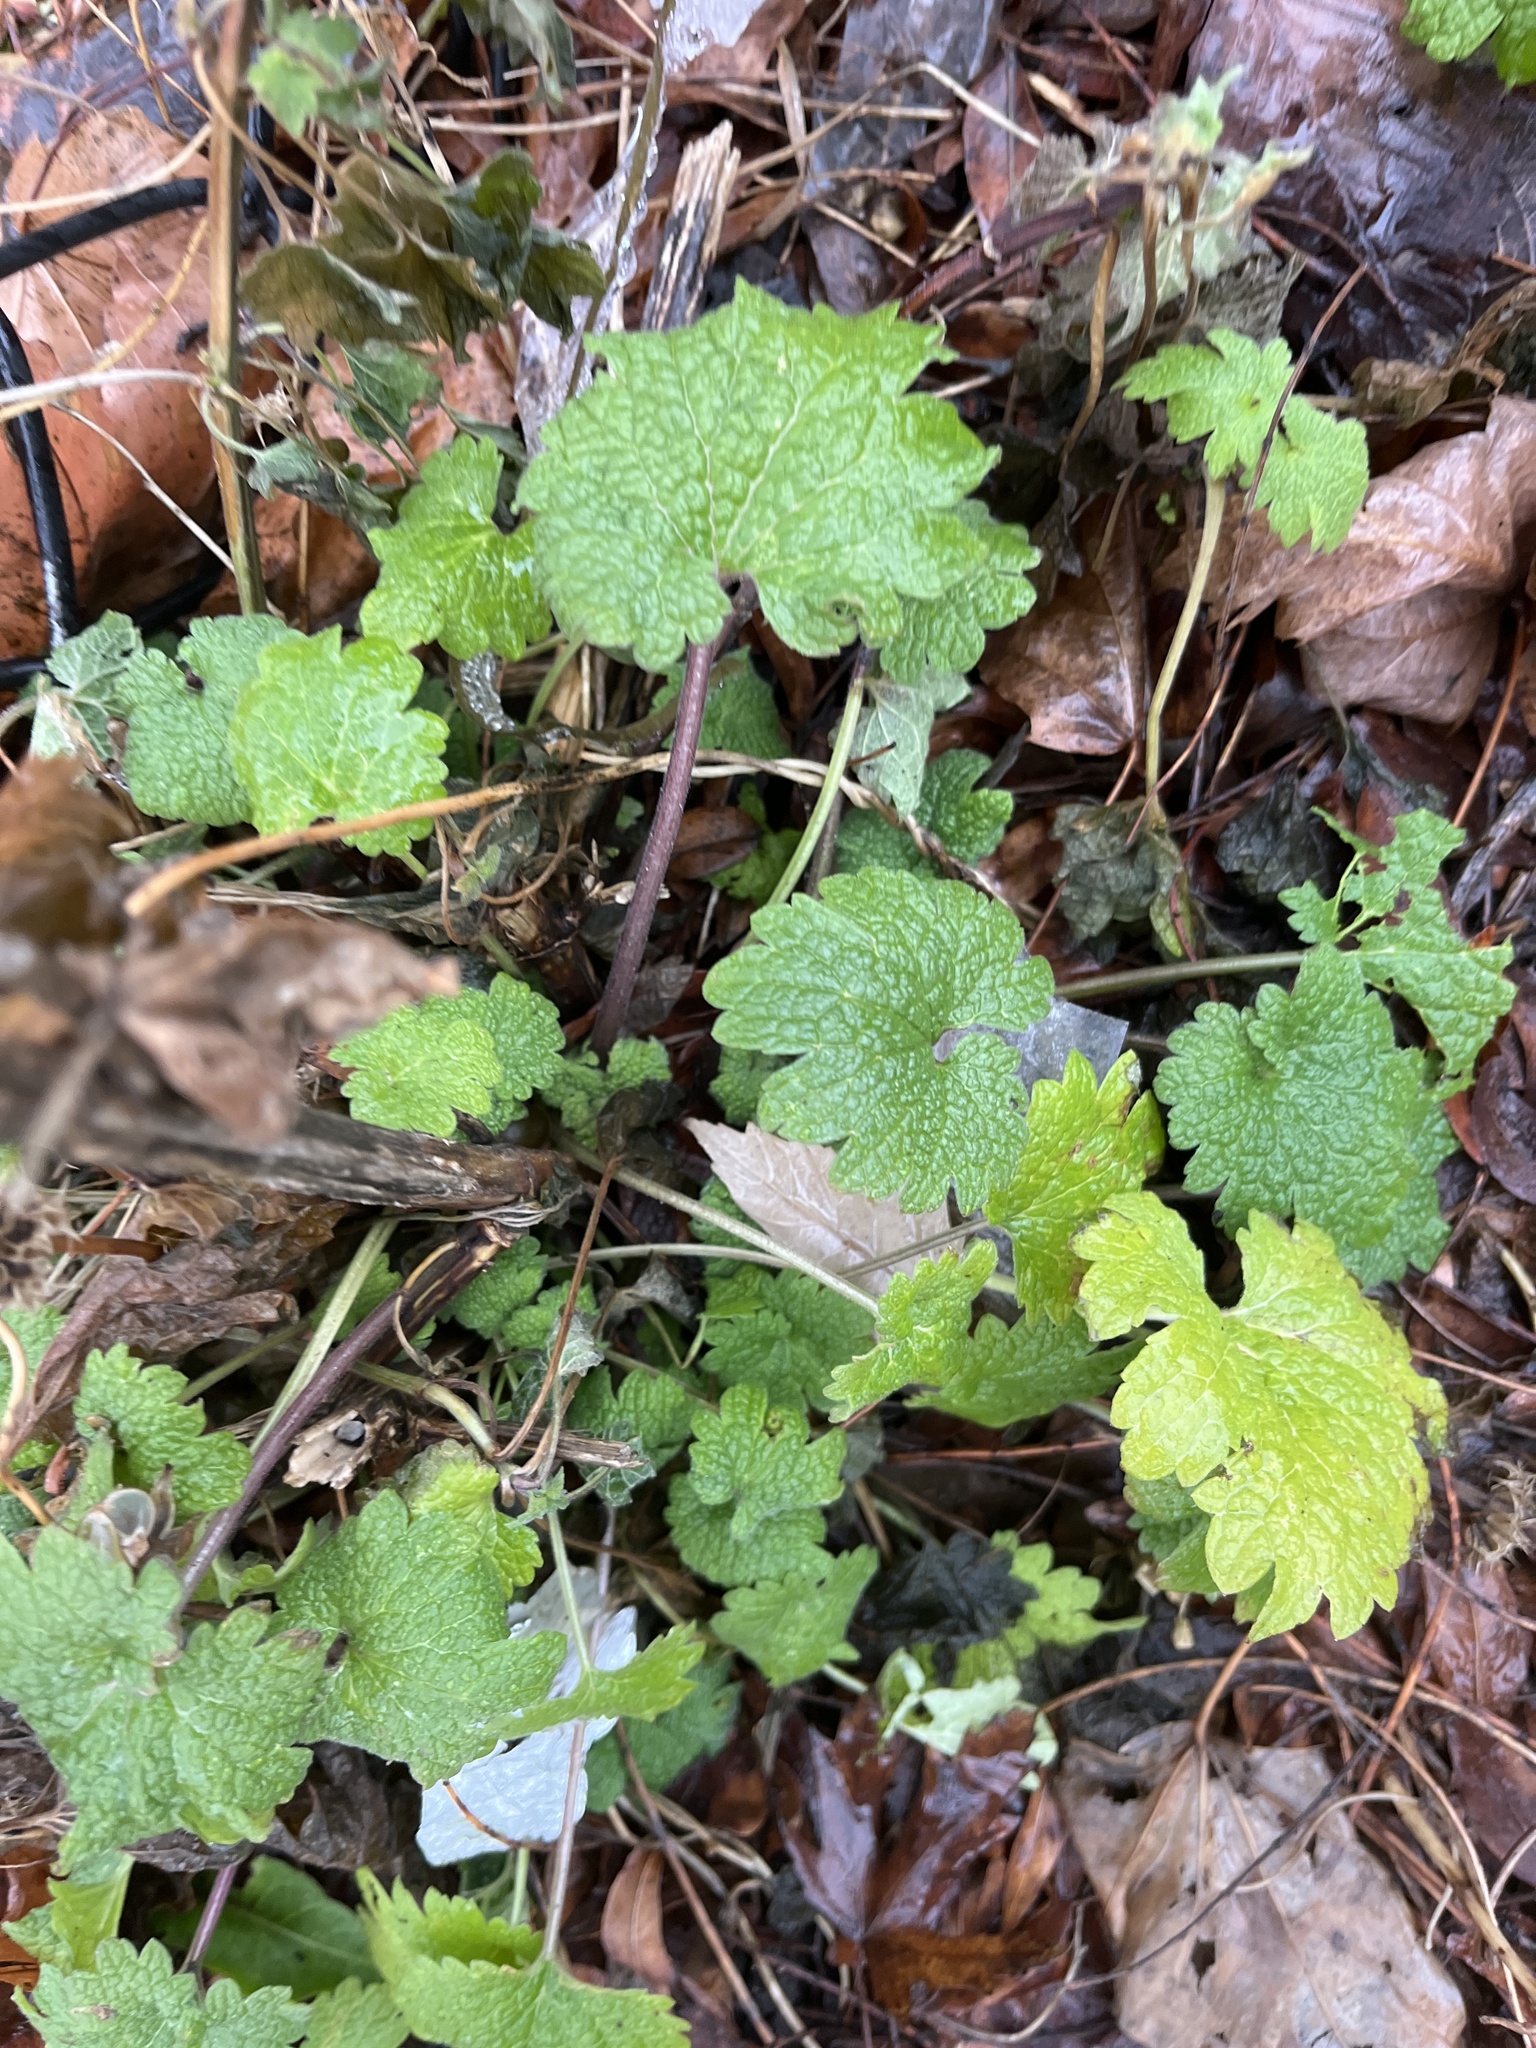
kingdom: Plantae
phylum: Tracheophyta
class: Magnoliopsida
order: Lamiales
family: Lamiaceae
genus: Leonurus
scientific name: Leonurus cardiaca
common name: Motherwort
